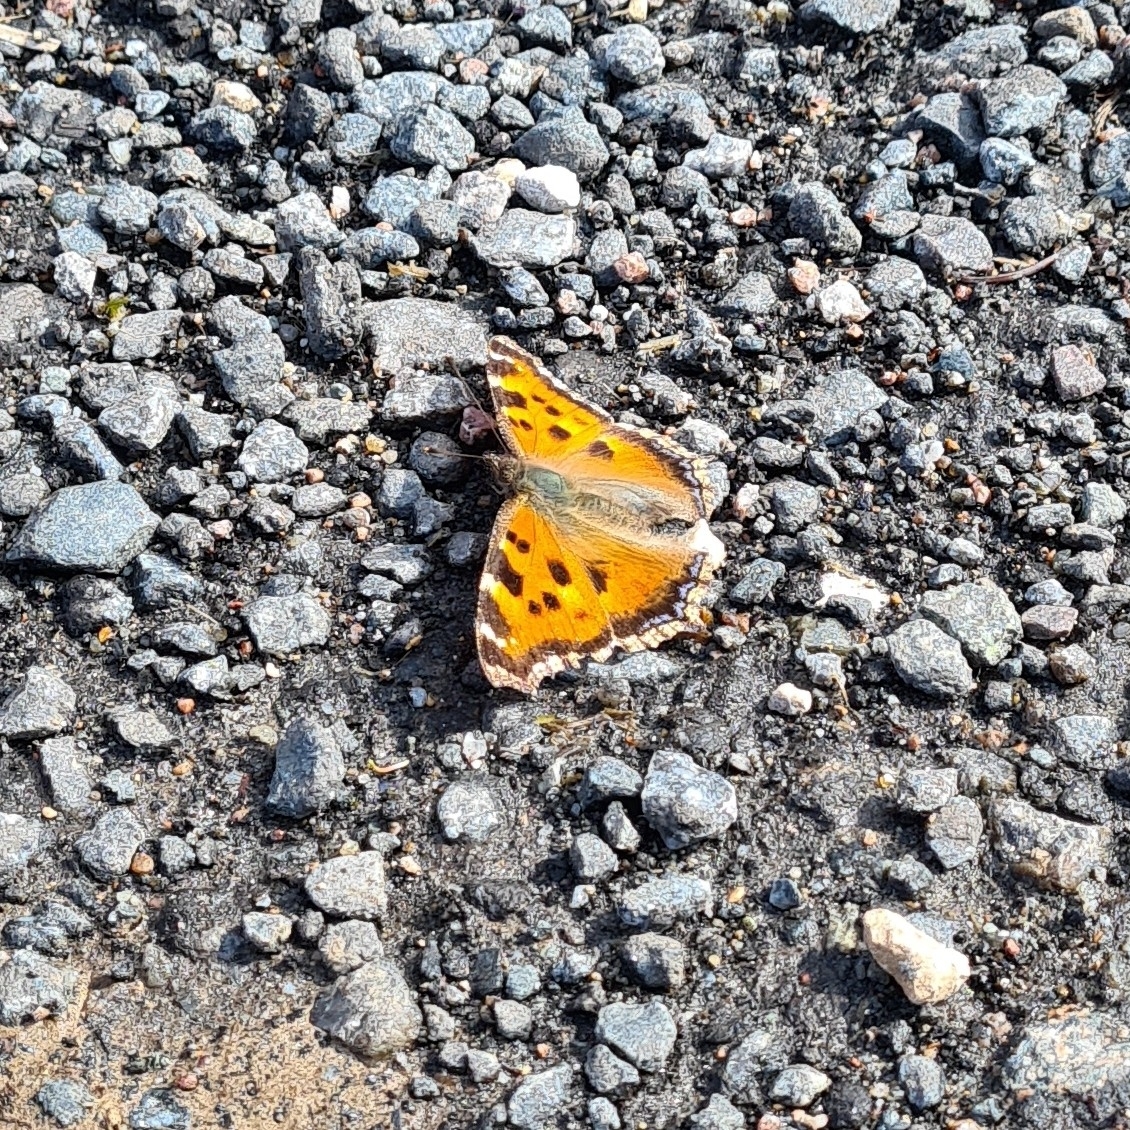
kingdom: Animalia
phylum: Arthropoda
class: Insecta
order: Lepidoptera
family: Nymphalidae
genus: Nymphalis
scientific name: Nymphalis xanthomelas
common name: Scarce tortoiseshell
